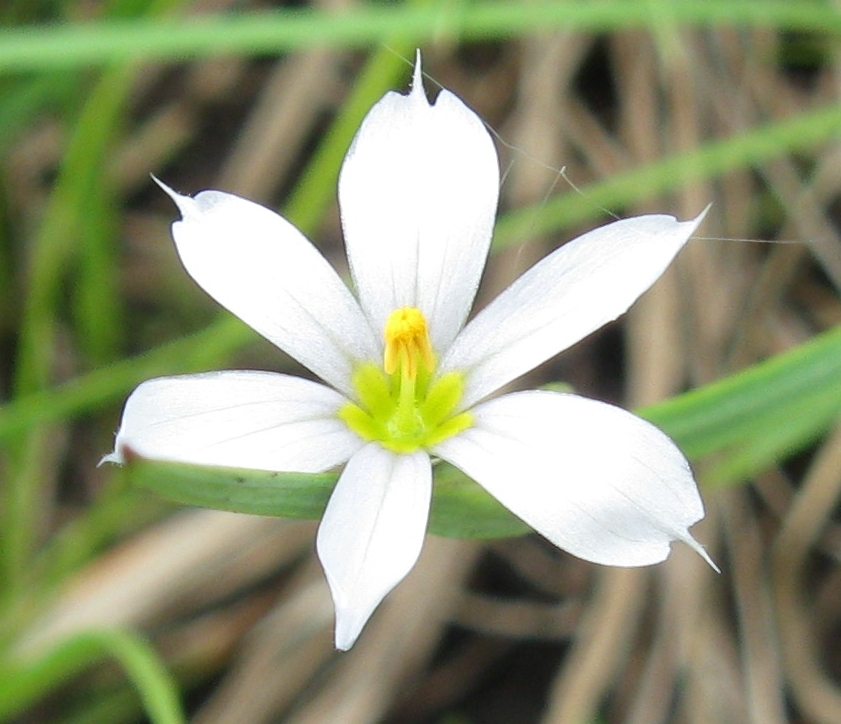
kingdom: Plantae
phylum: Tracheophyta
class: Liliopsida
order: Asparagales
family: Iridaceae
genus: Sisyrinchium
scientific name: Sisyrinchium albidum
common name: Pale blue-eyed-grass
